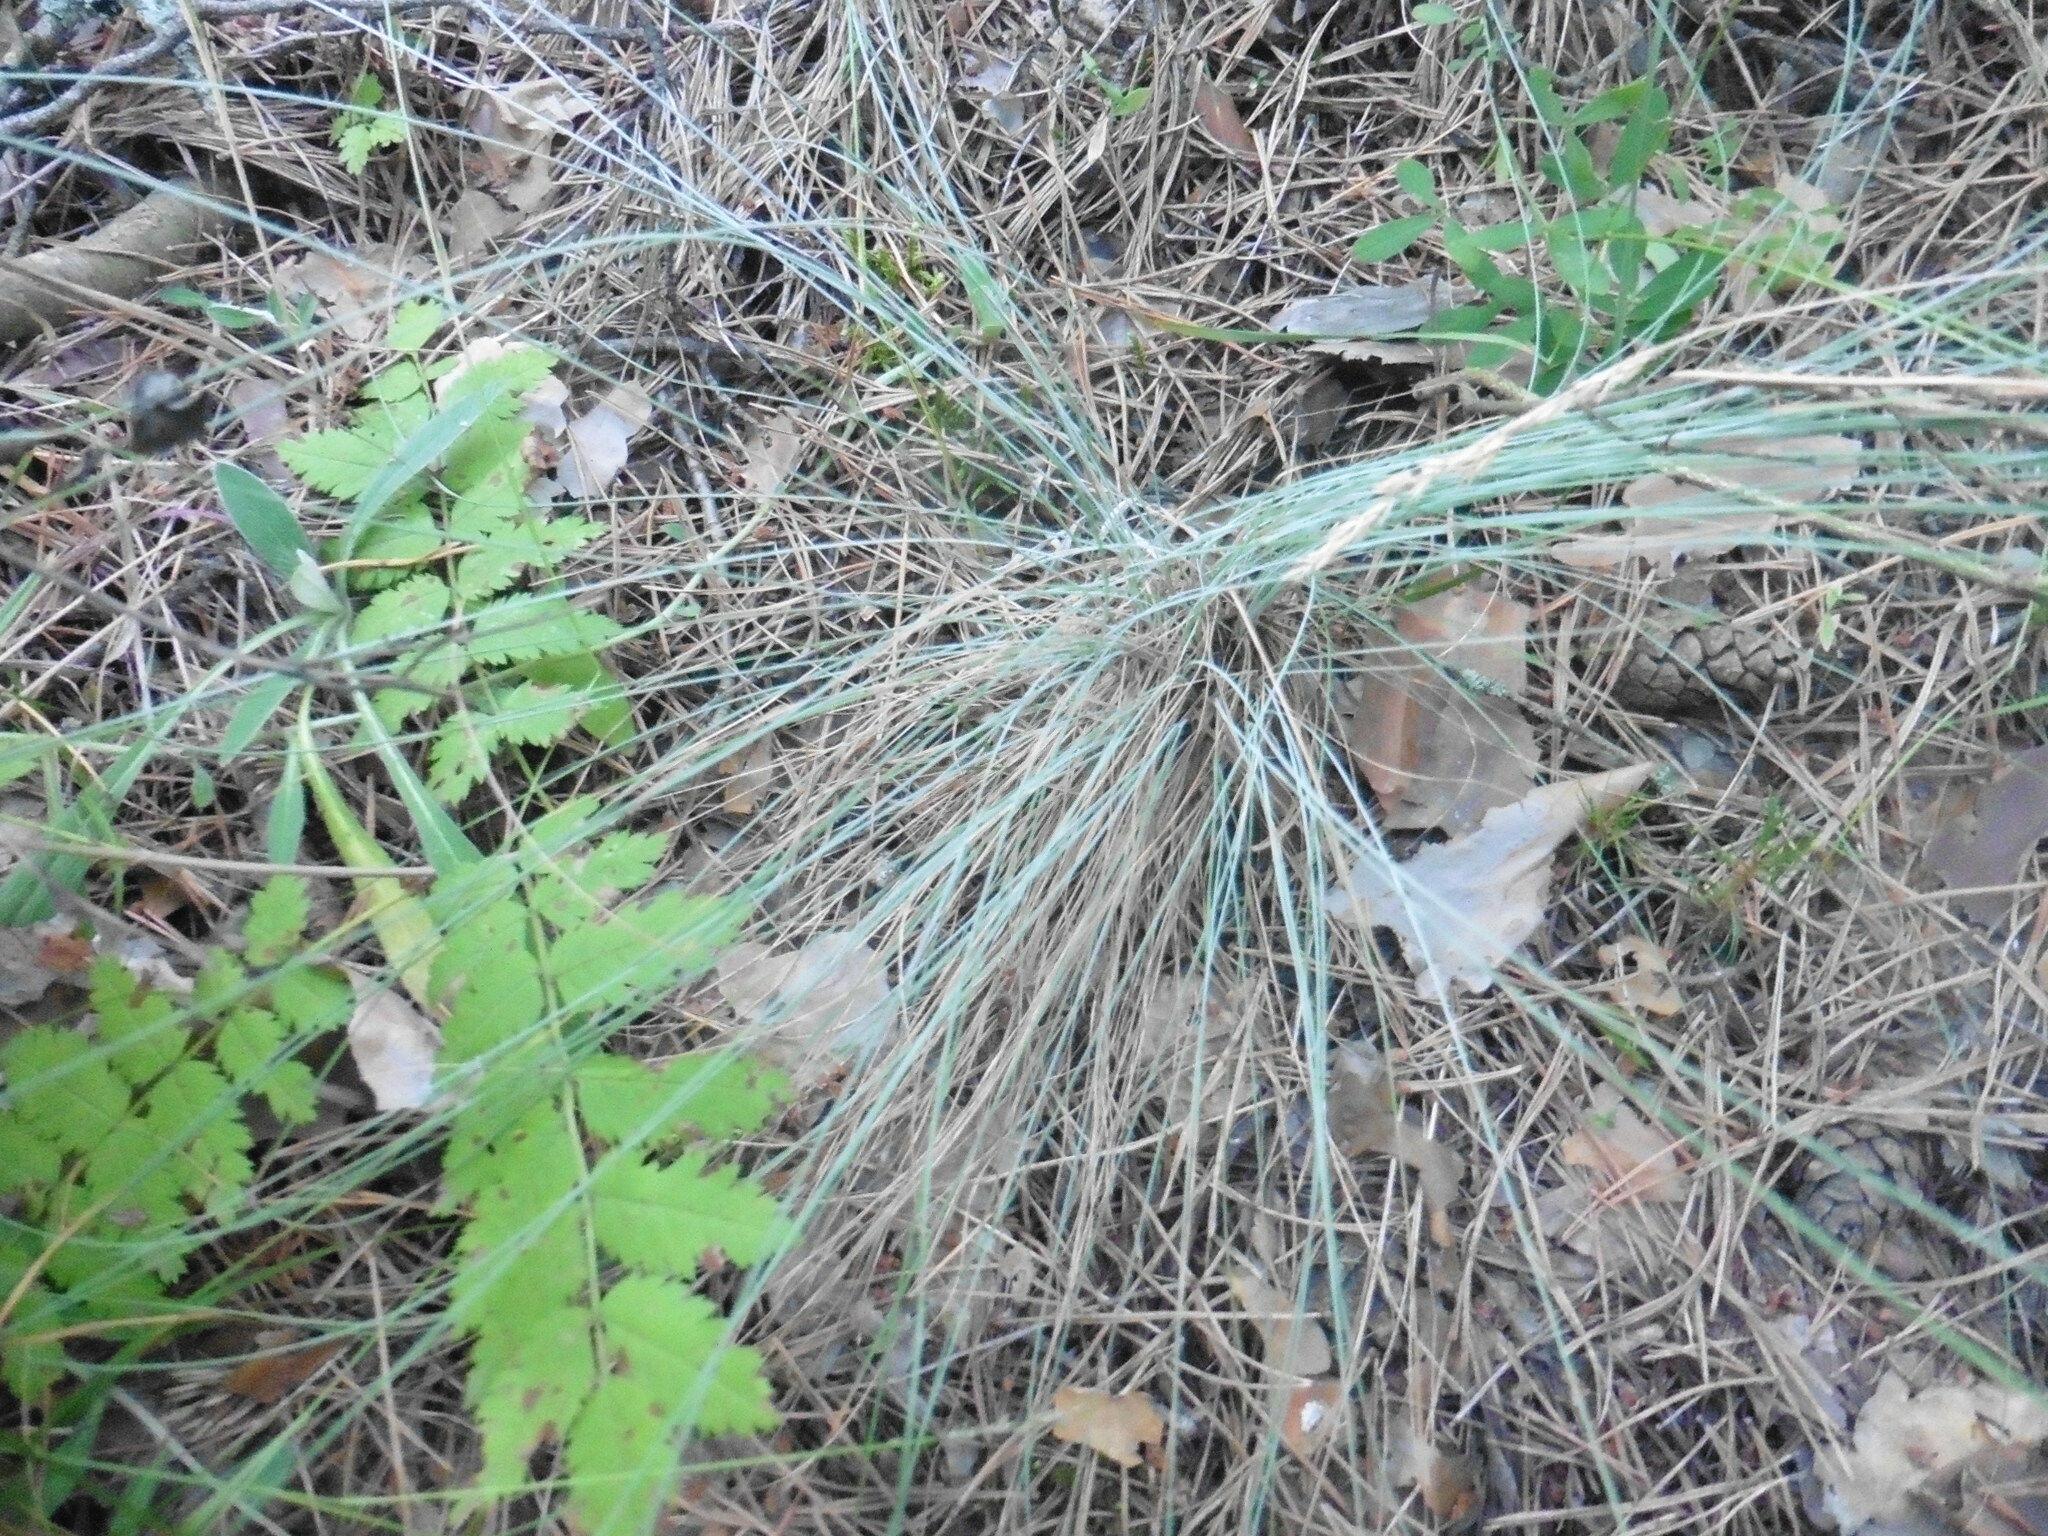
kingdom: Plantae
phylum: Tracheophyta
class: Liliopsida
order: Poales
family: Poaceae
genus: Festuca
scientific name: Festuca valesiaca
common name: Volga fescue
